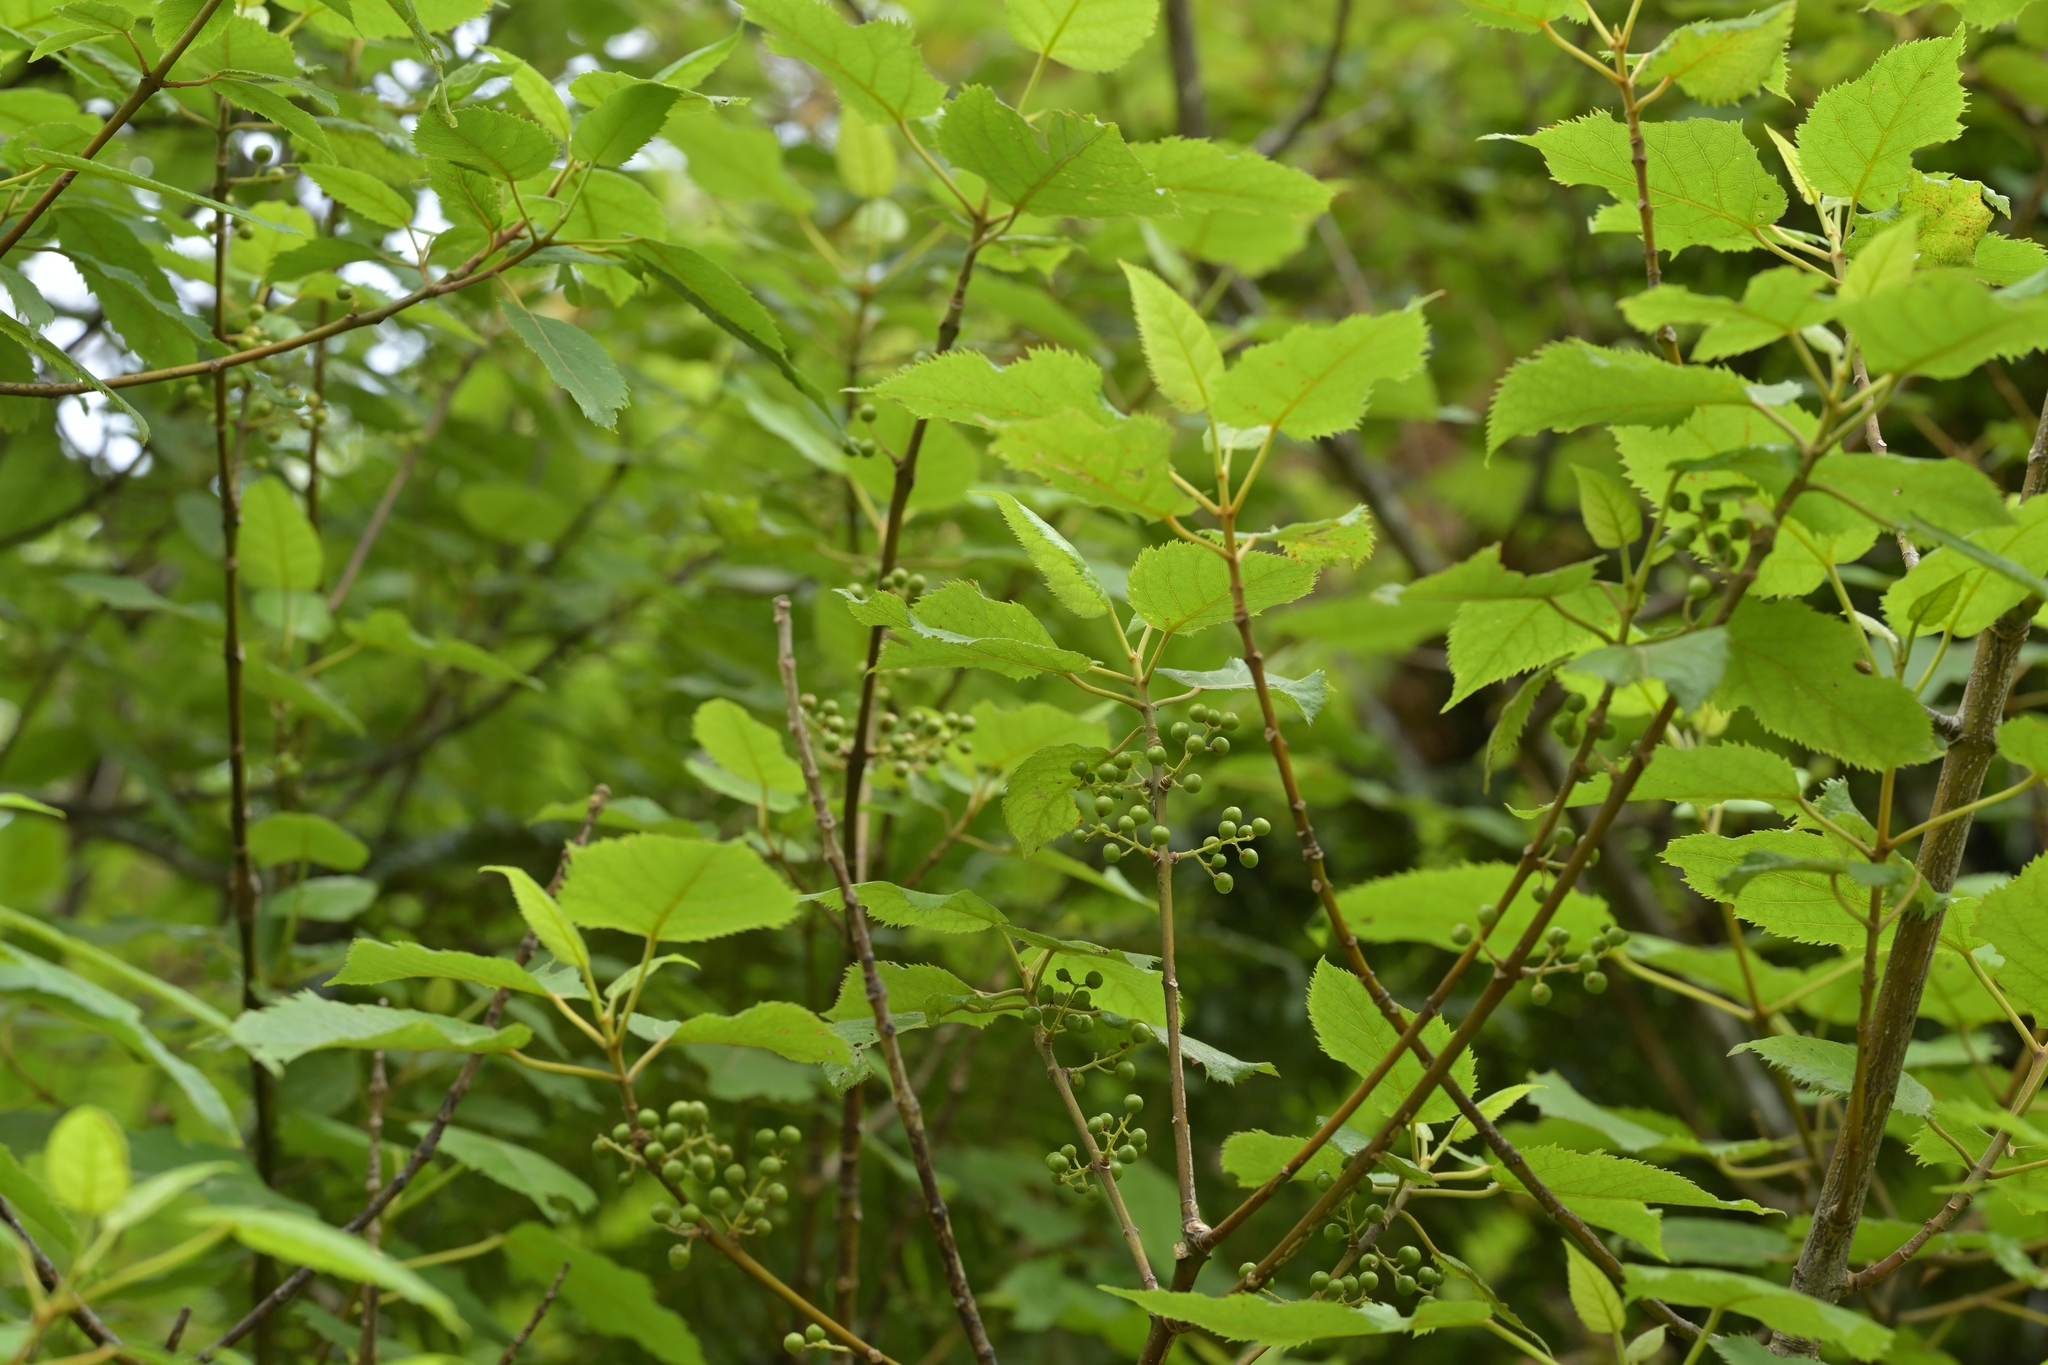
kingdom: Plantae
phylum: Tracheophyta
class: Magnoliopsida
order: Oxalidales
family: Elaeocarpaceae
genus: Aristotelia
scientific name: Aristotelia serrata
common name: New zealand wineberry
